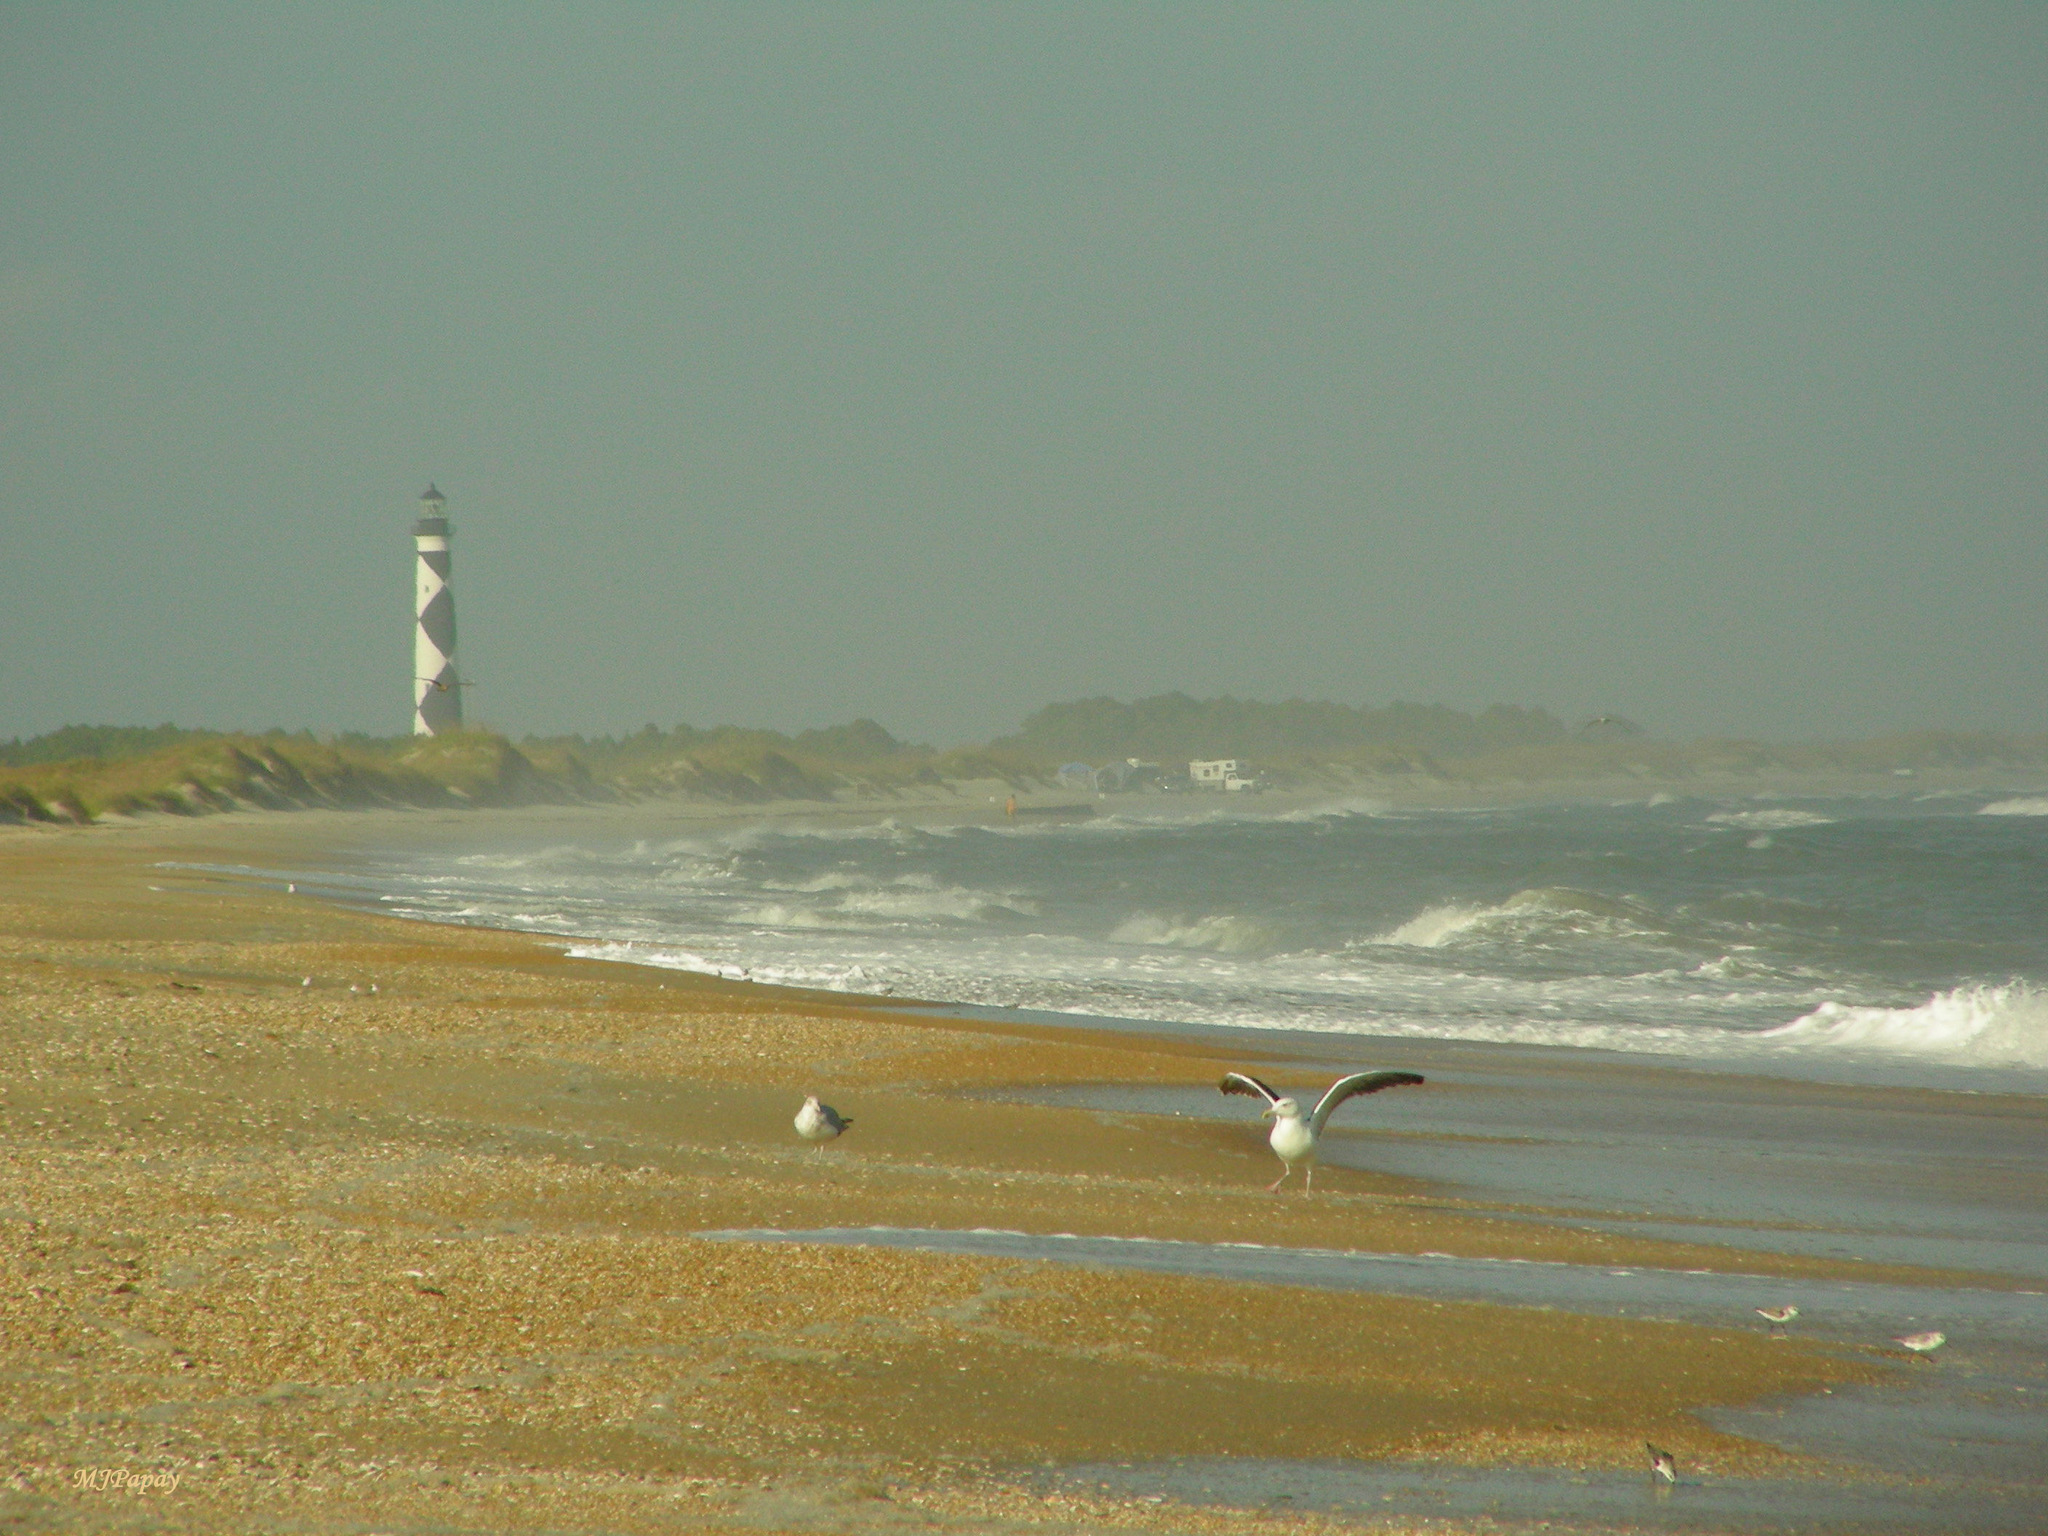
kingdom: Animalia
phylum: Chordata
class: Aves
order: Charadriiformes
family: Laridae
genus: Larus
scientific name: Larus marinus
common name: Great black-backed gull
